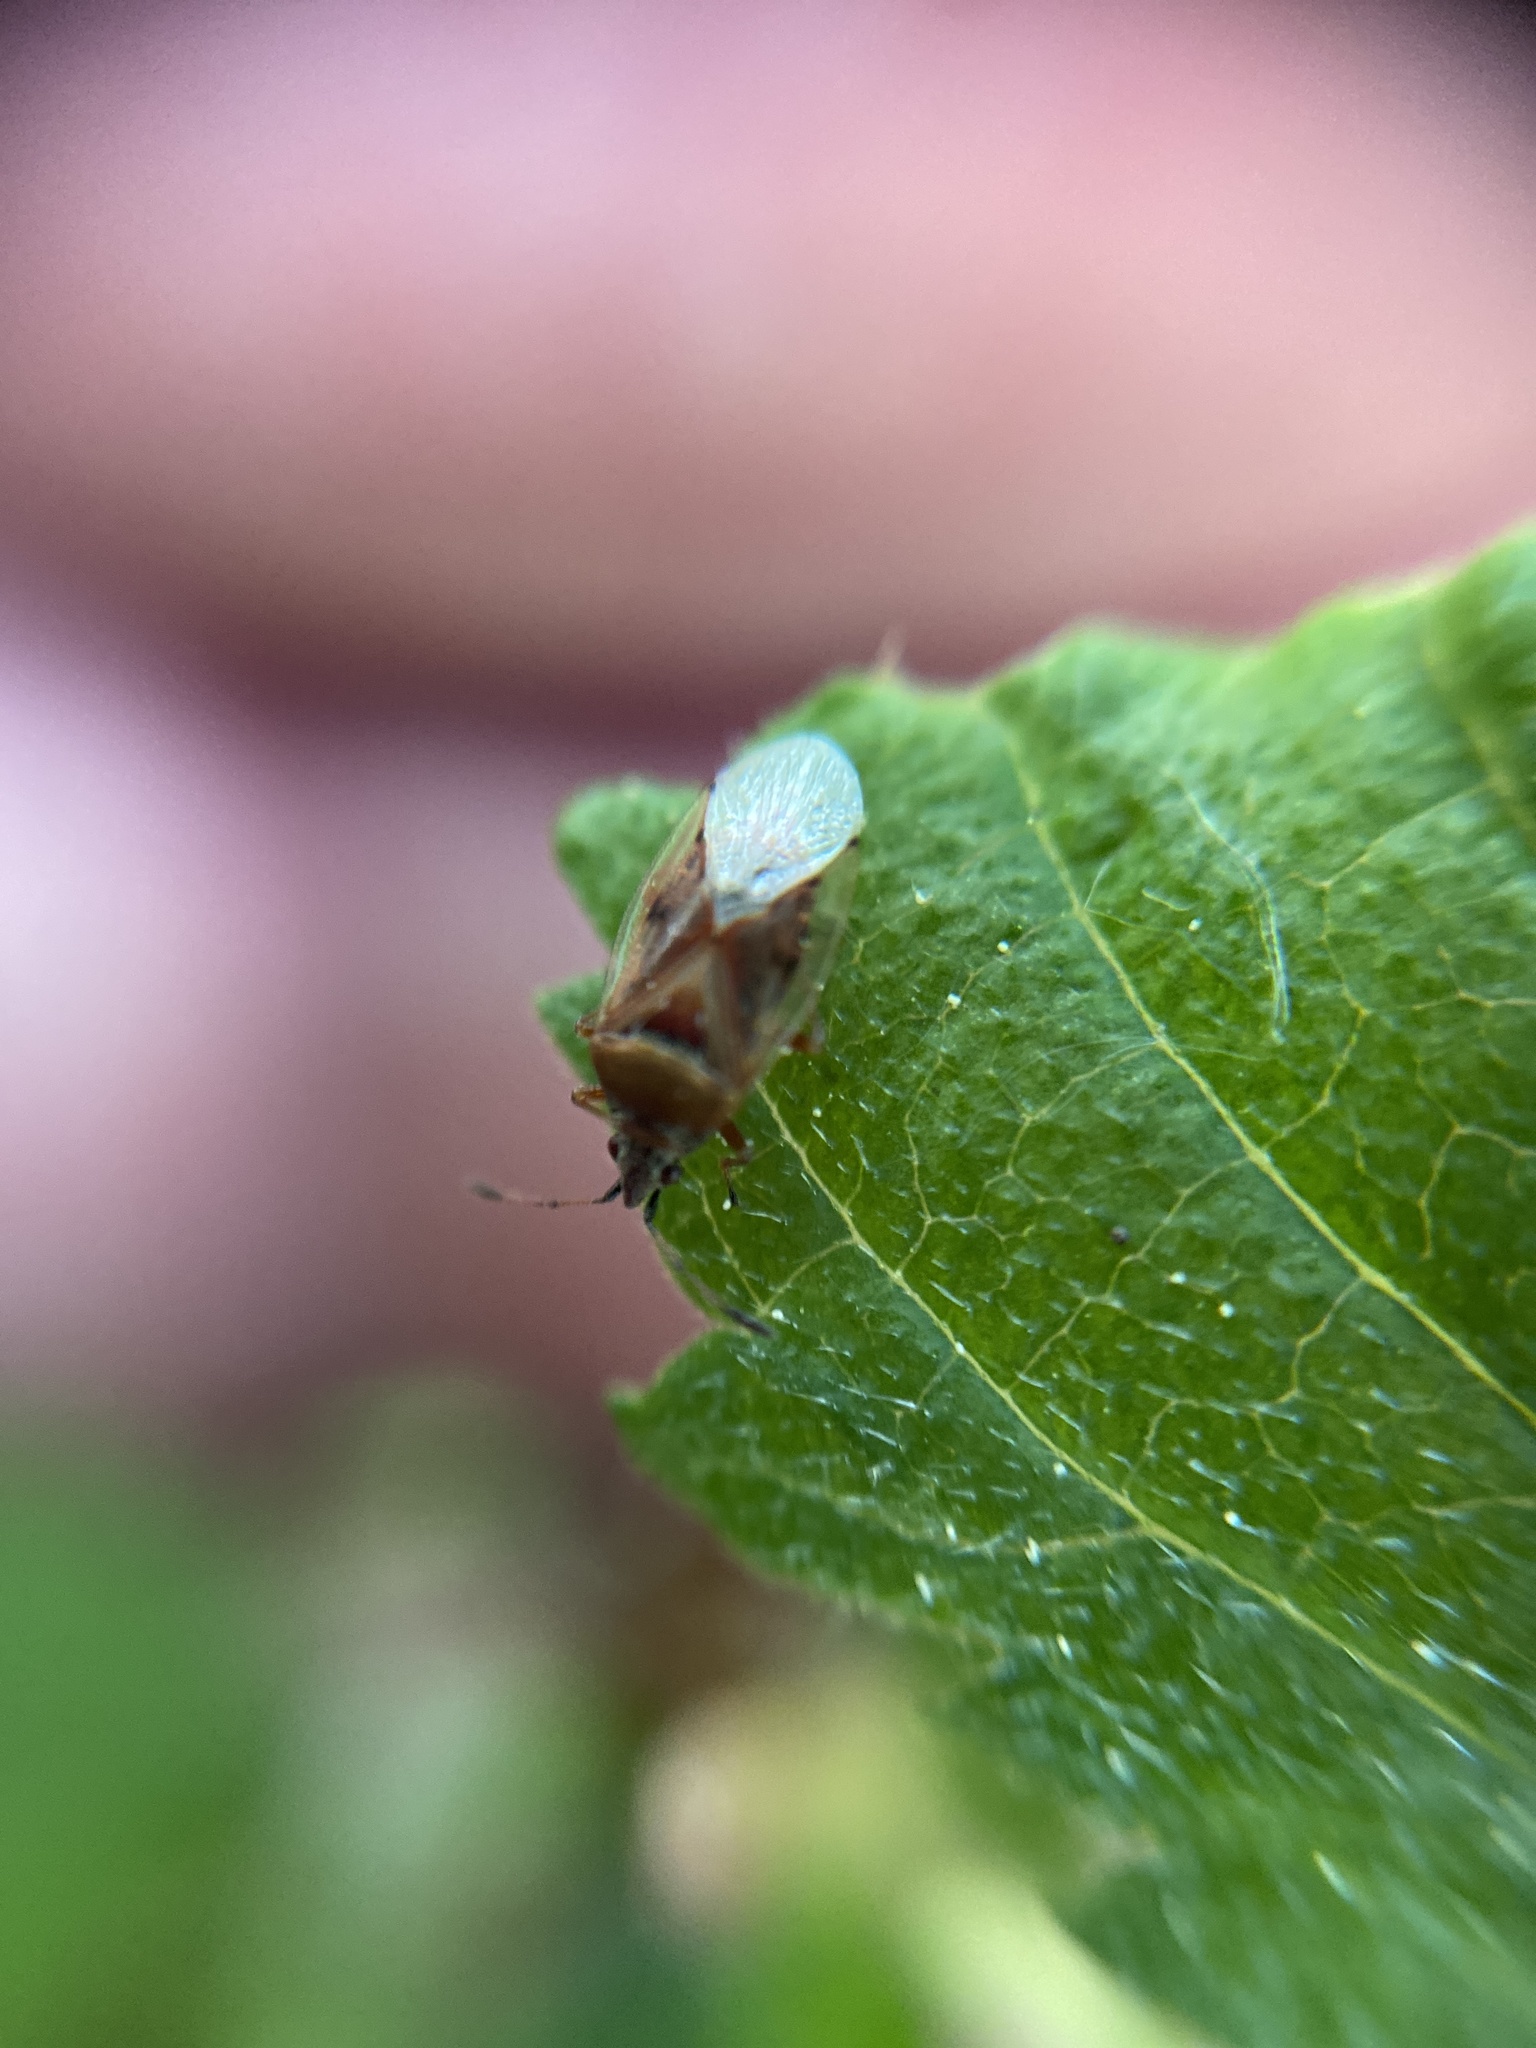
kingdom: Animalia
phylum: Arthropoda
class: Insecta
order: Hemiptera
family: Lygaeidae
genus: Kleidocerys
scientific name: Kleidocerys resedae
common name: Birch catkin bug
